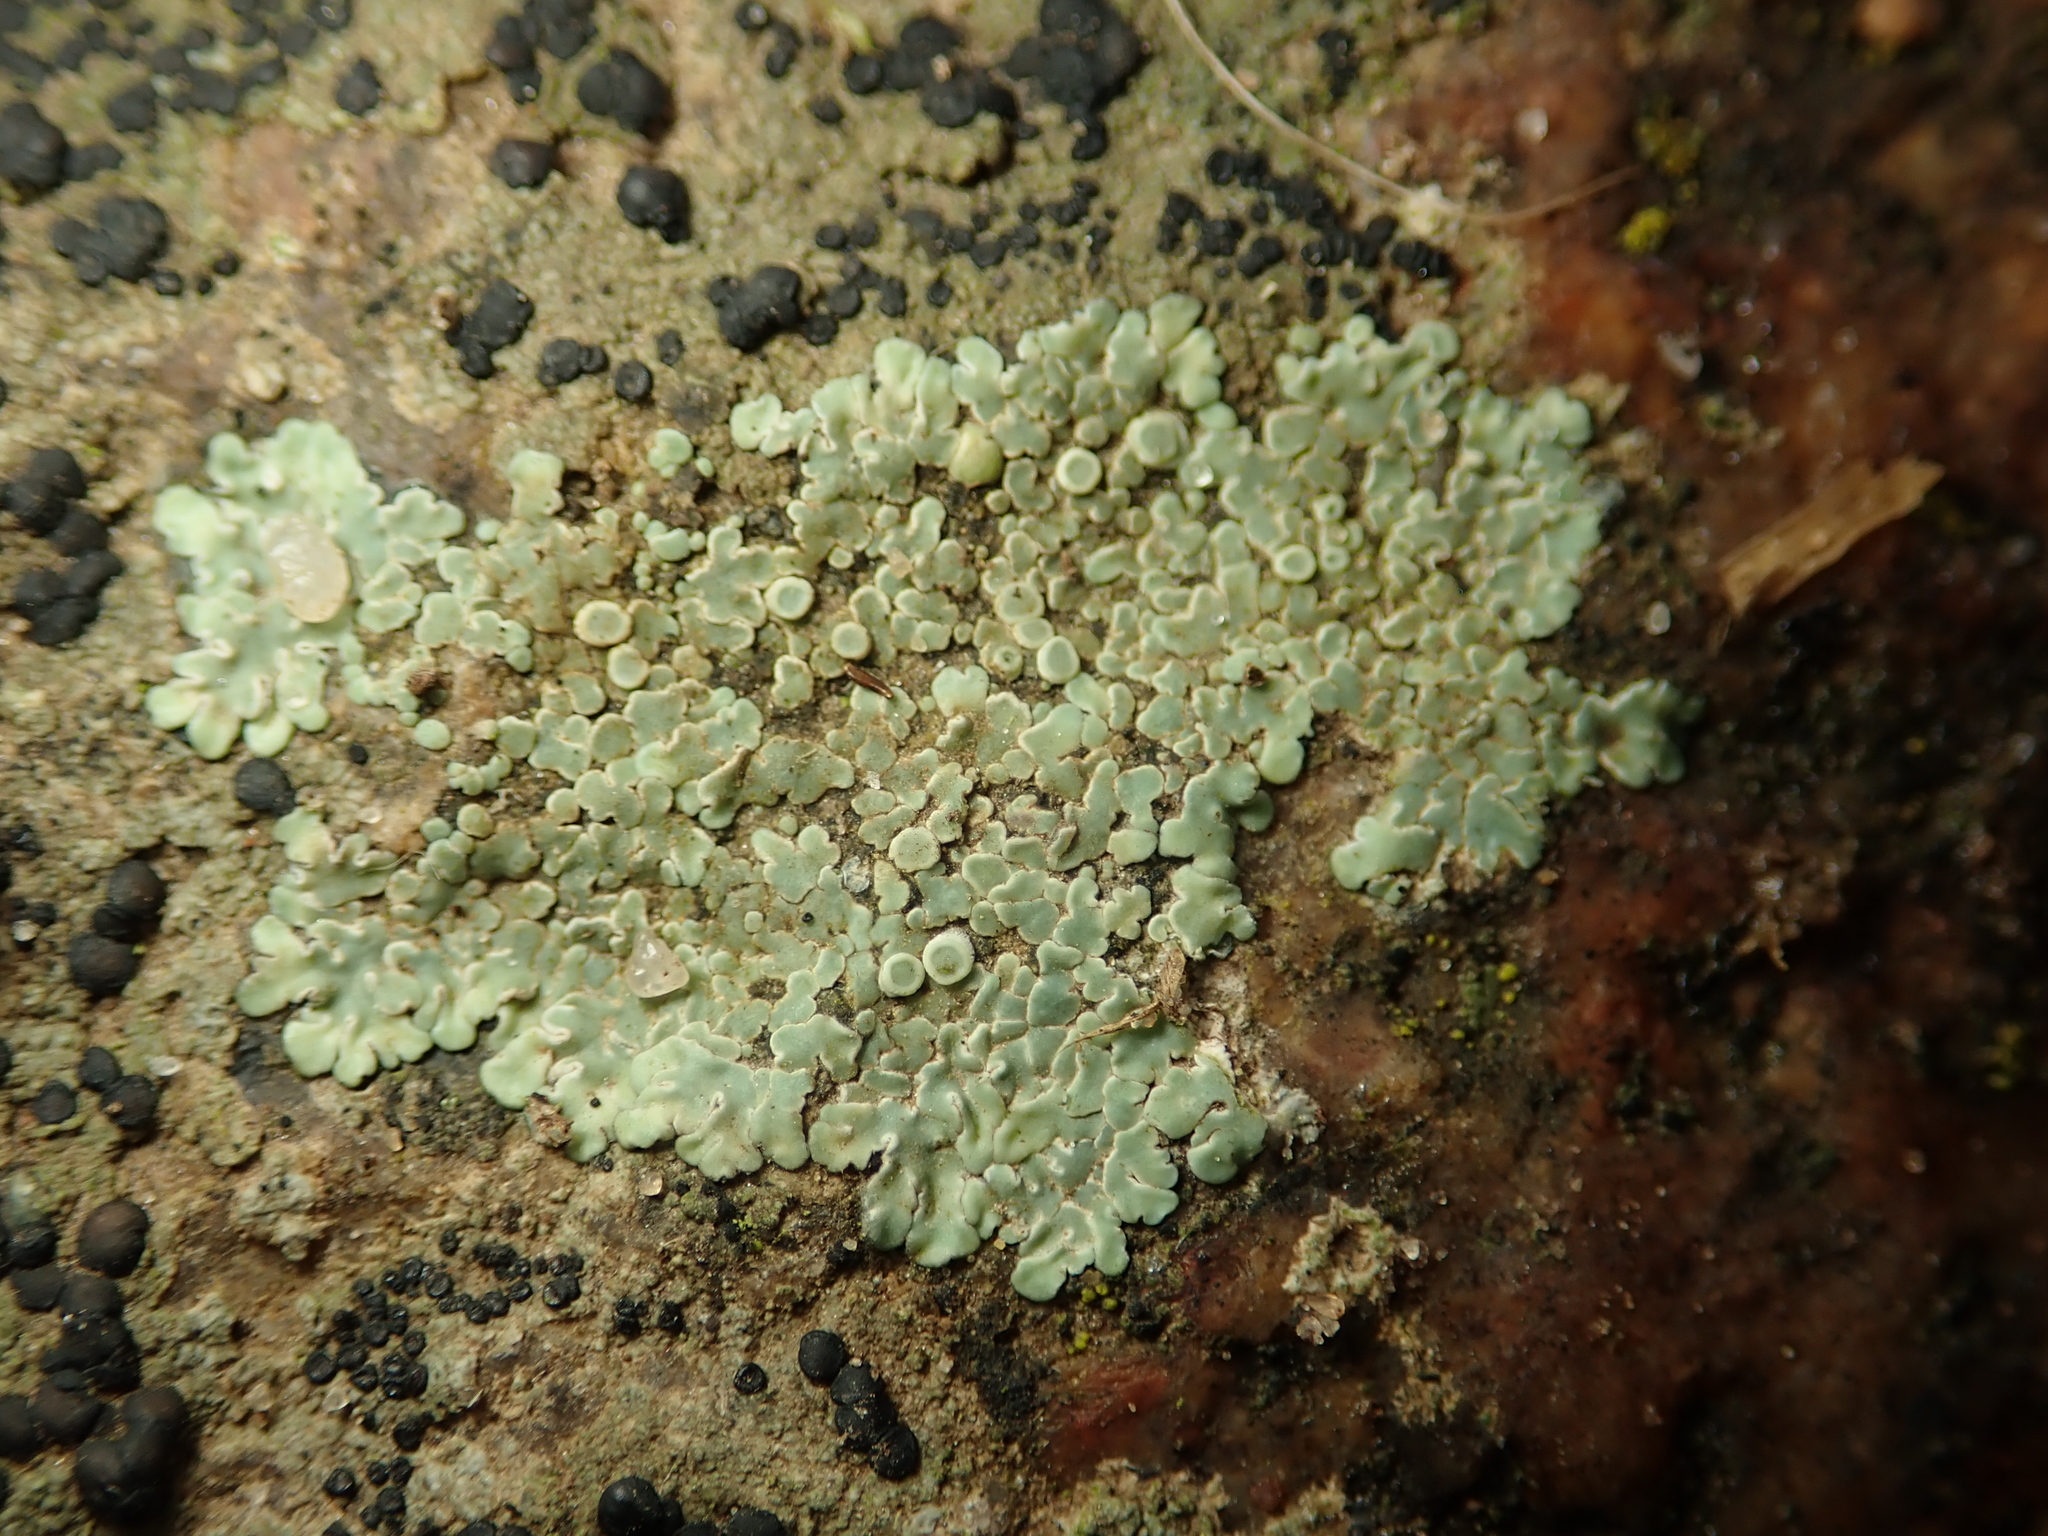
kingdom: Fungi
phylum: Ascomycota
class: Lecanoromycetes
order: Lecanorales
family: Lecanoraceae
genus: Protoparmeliopsis
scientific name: Protoparmeliopsis muralis
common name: Stonewall rim lichen
